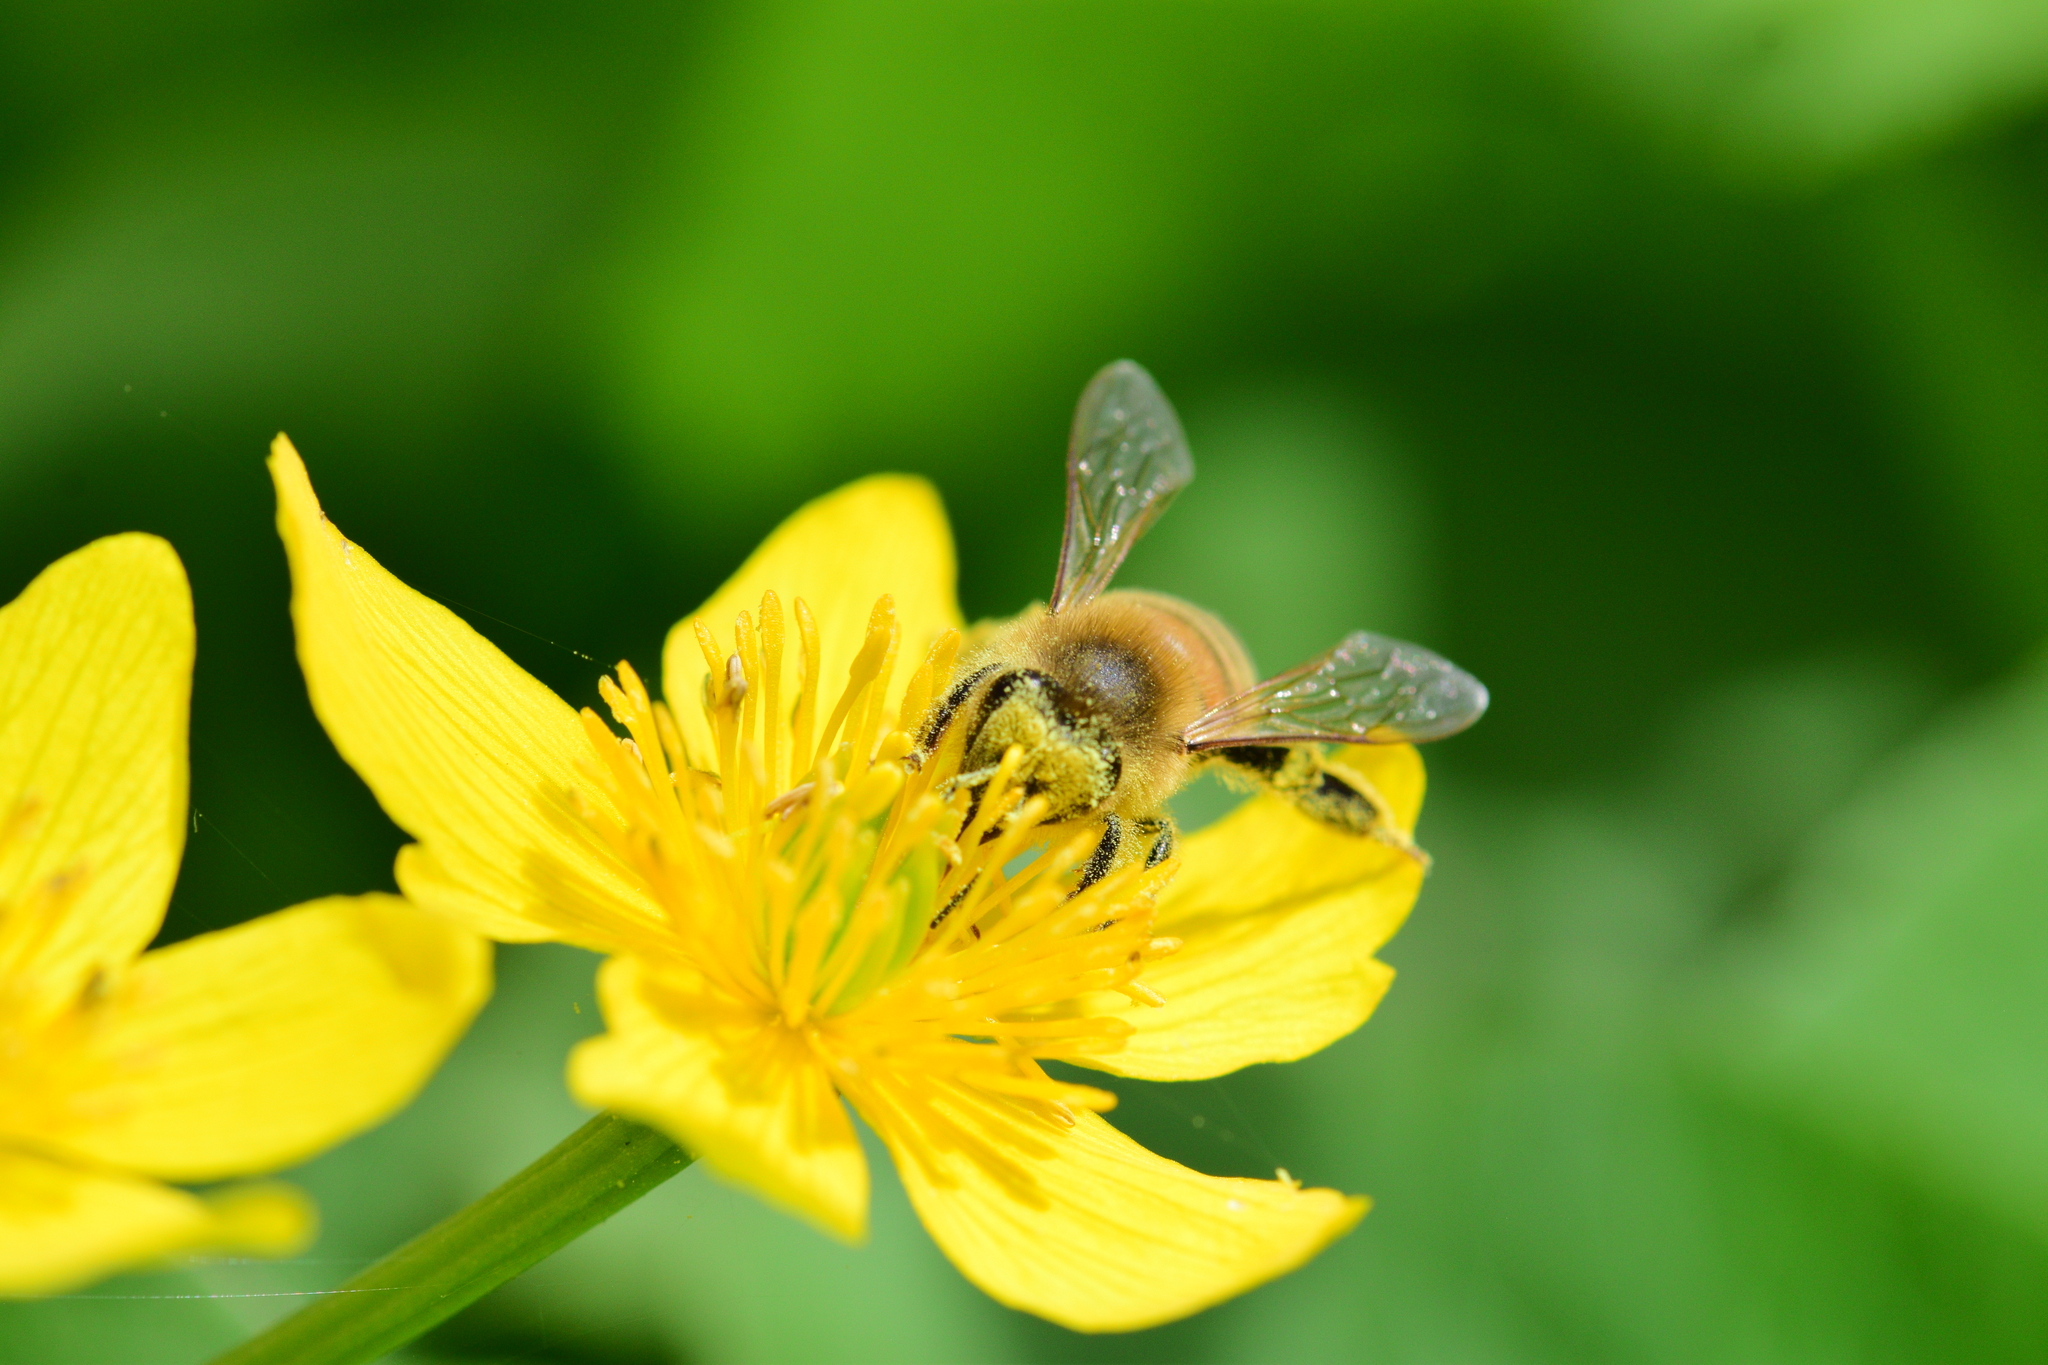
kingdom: Animalia
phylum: Arthropoda
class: Insecta
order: Hymenoptera
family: Apidae
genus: Apis
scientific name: Apis mellifera
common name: Honey bee
